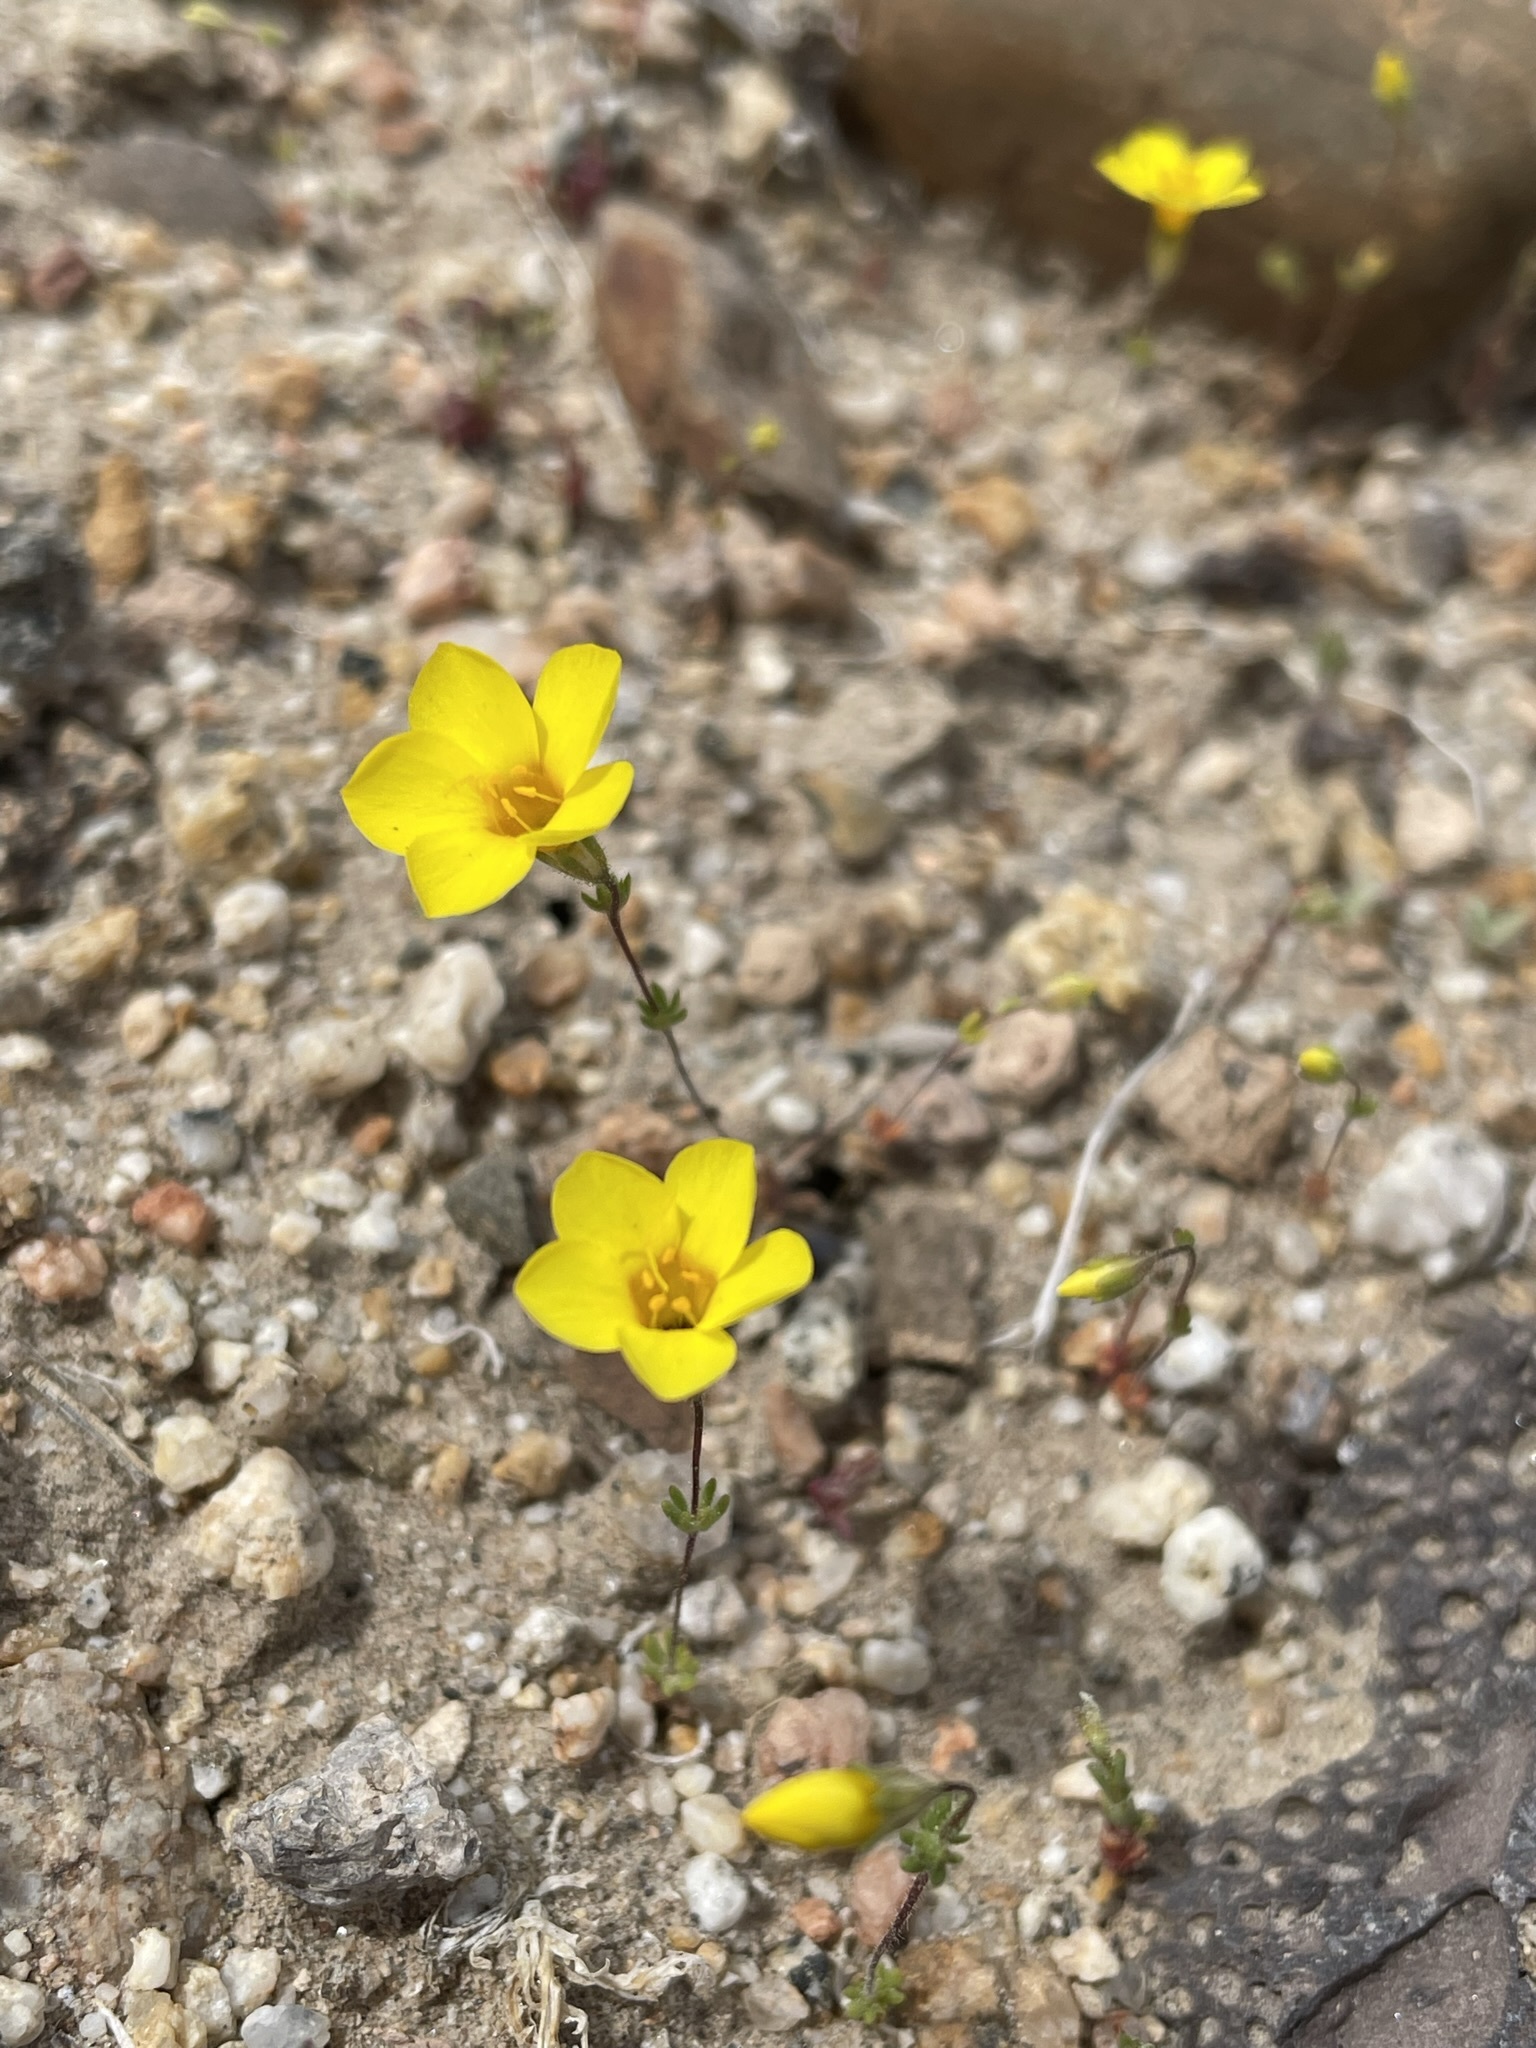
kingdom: Plantae
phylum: Tracheophyta
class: Magnoliopsida
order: Ericales
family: Polemoniaceae
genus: Leptosiphon
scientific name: Leptosiphon chrysanthus
